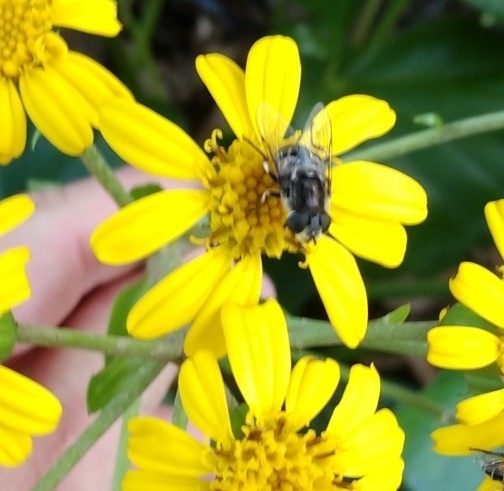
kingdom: Animalia
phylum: Arthropoda
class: Insecta
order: Diptera
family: Syrphidae
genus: Eristalis
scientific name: Eristalis dimidiata
